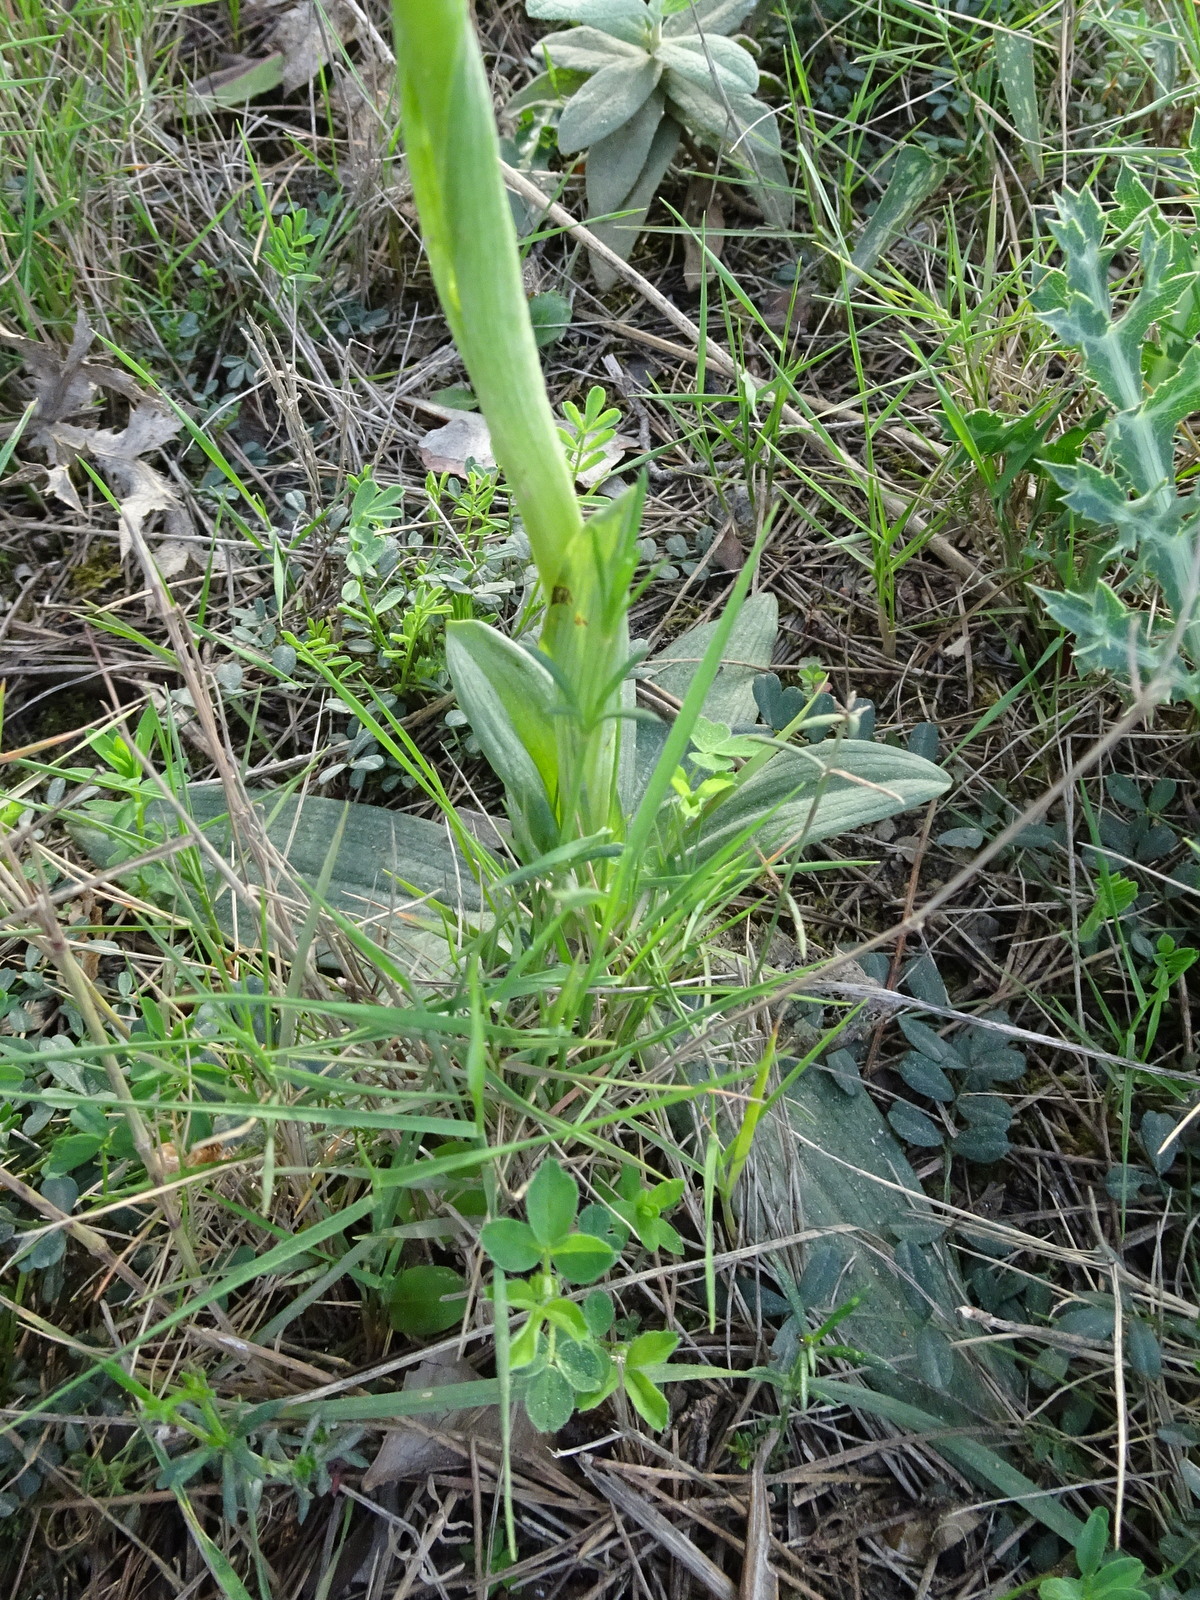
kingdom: Plantae
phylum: Tracheophyta
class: Liliopsida
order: Asparagales
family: Orchidaceae
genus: Ophrys
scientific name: Ophrys arachnitiformis
